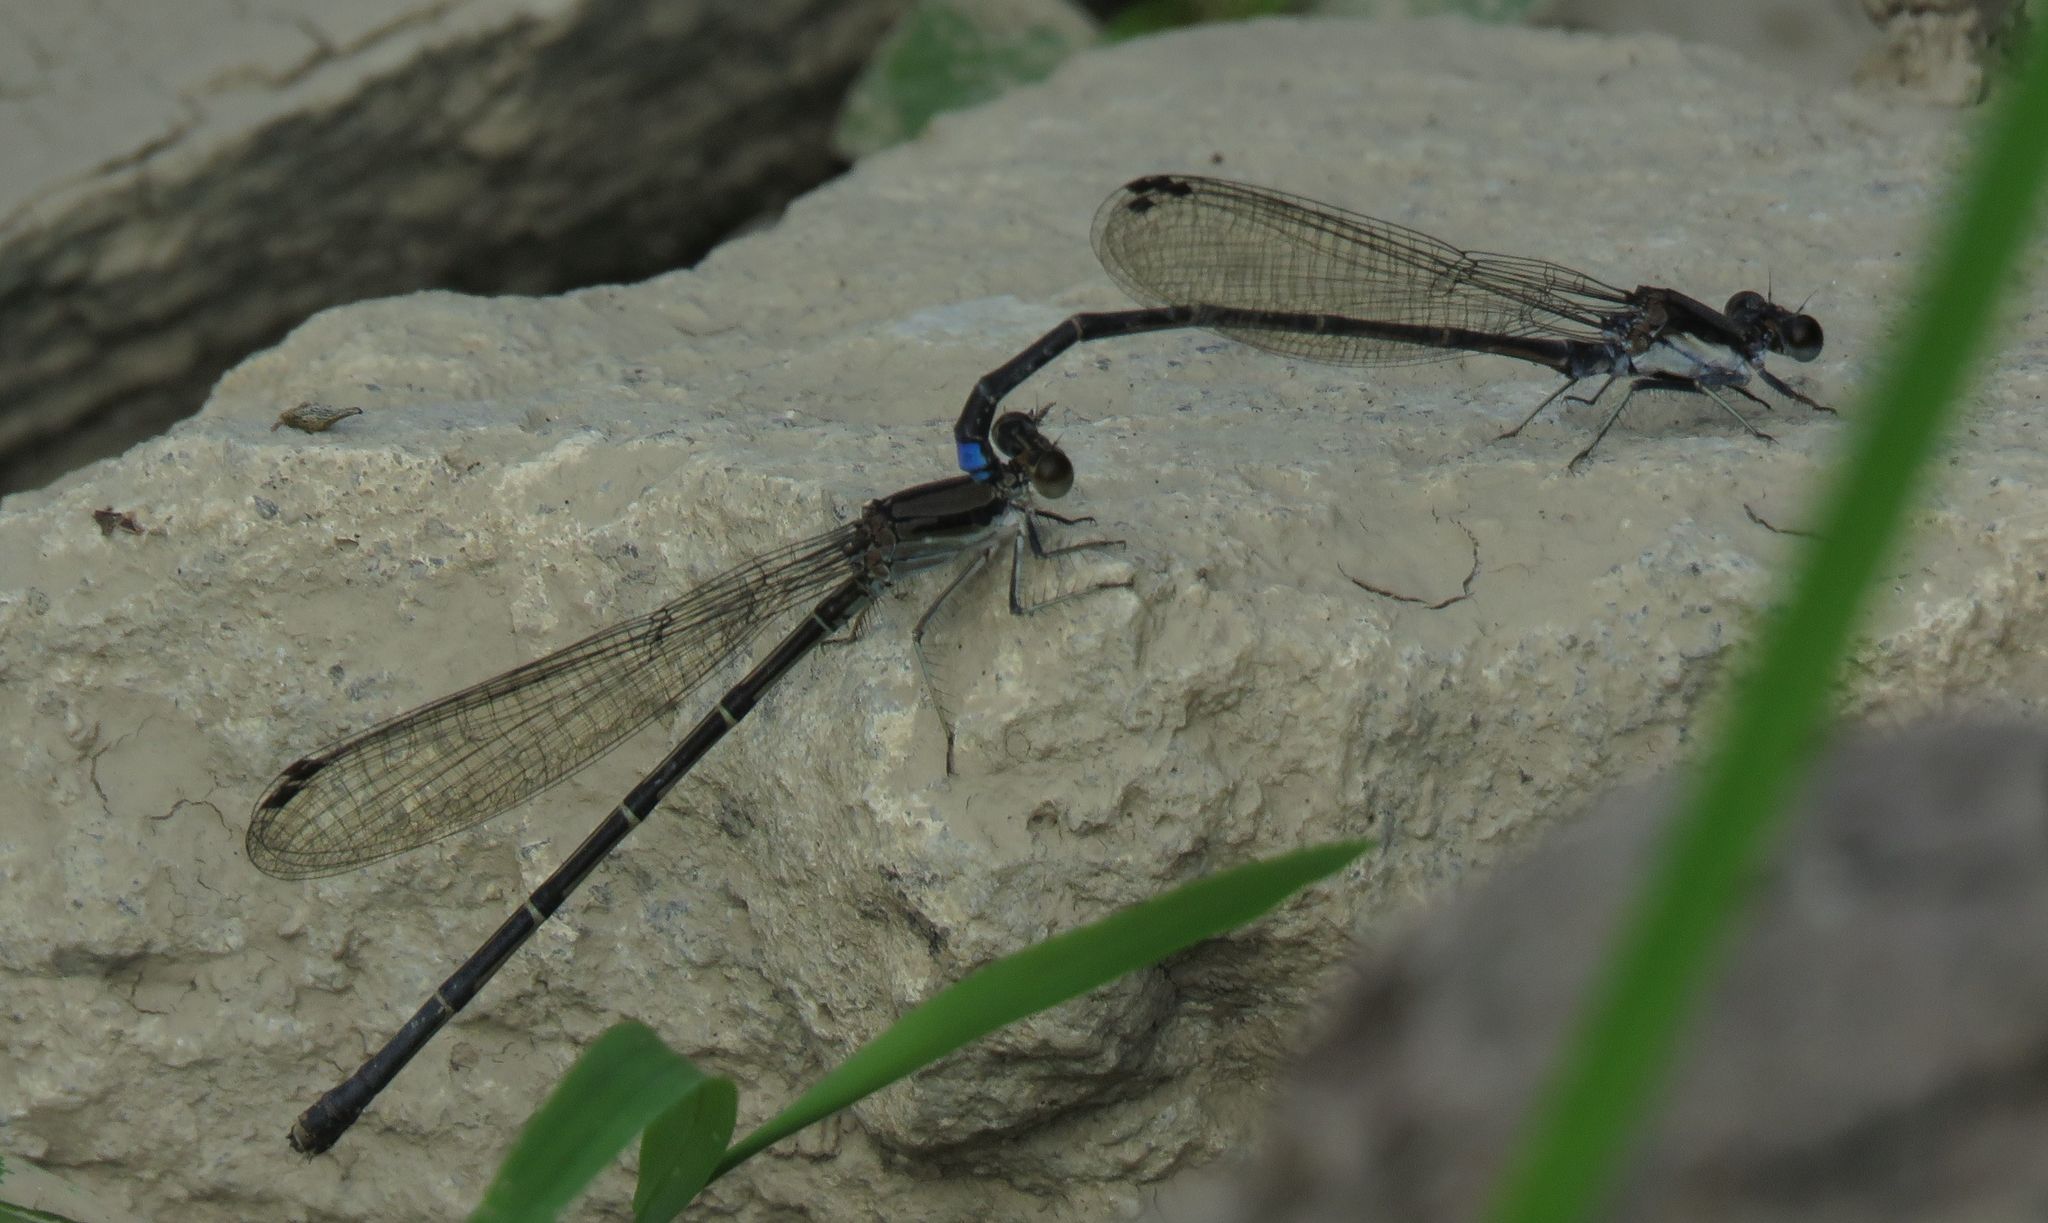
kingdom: Animalia
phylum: Arthropoda
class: Insecta
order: Odonata
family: Coenagrionidae
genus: Argia
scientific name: Argia tibialis
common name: Blue-tipped dancer
